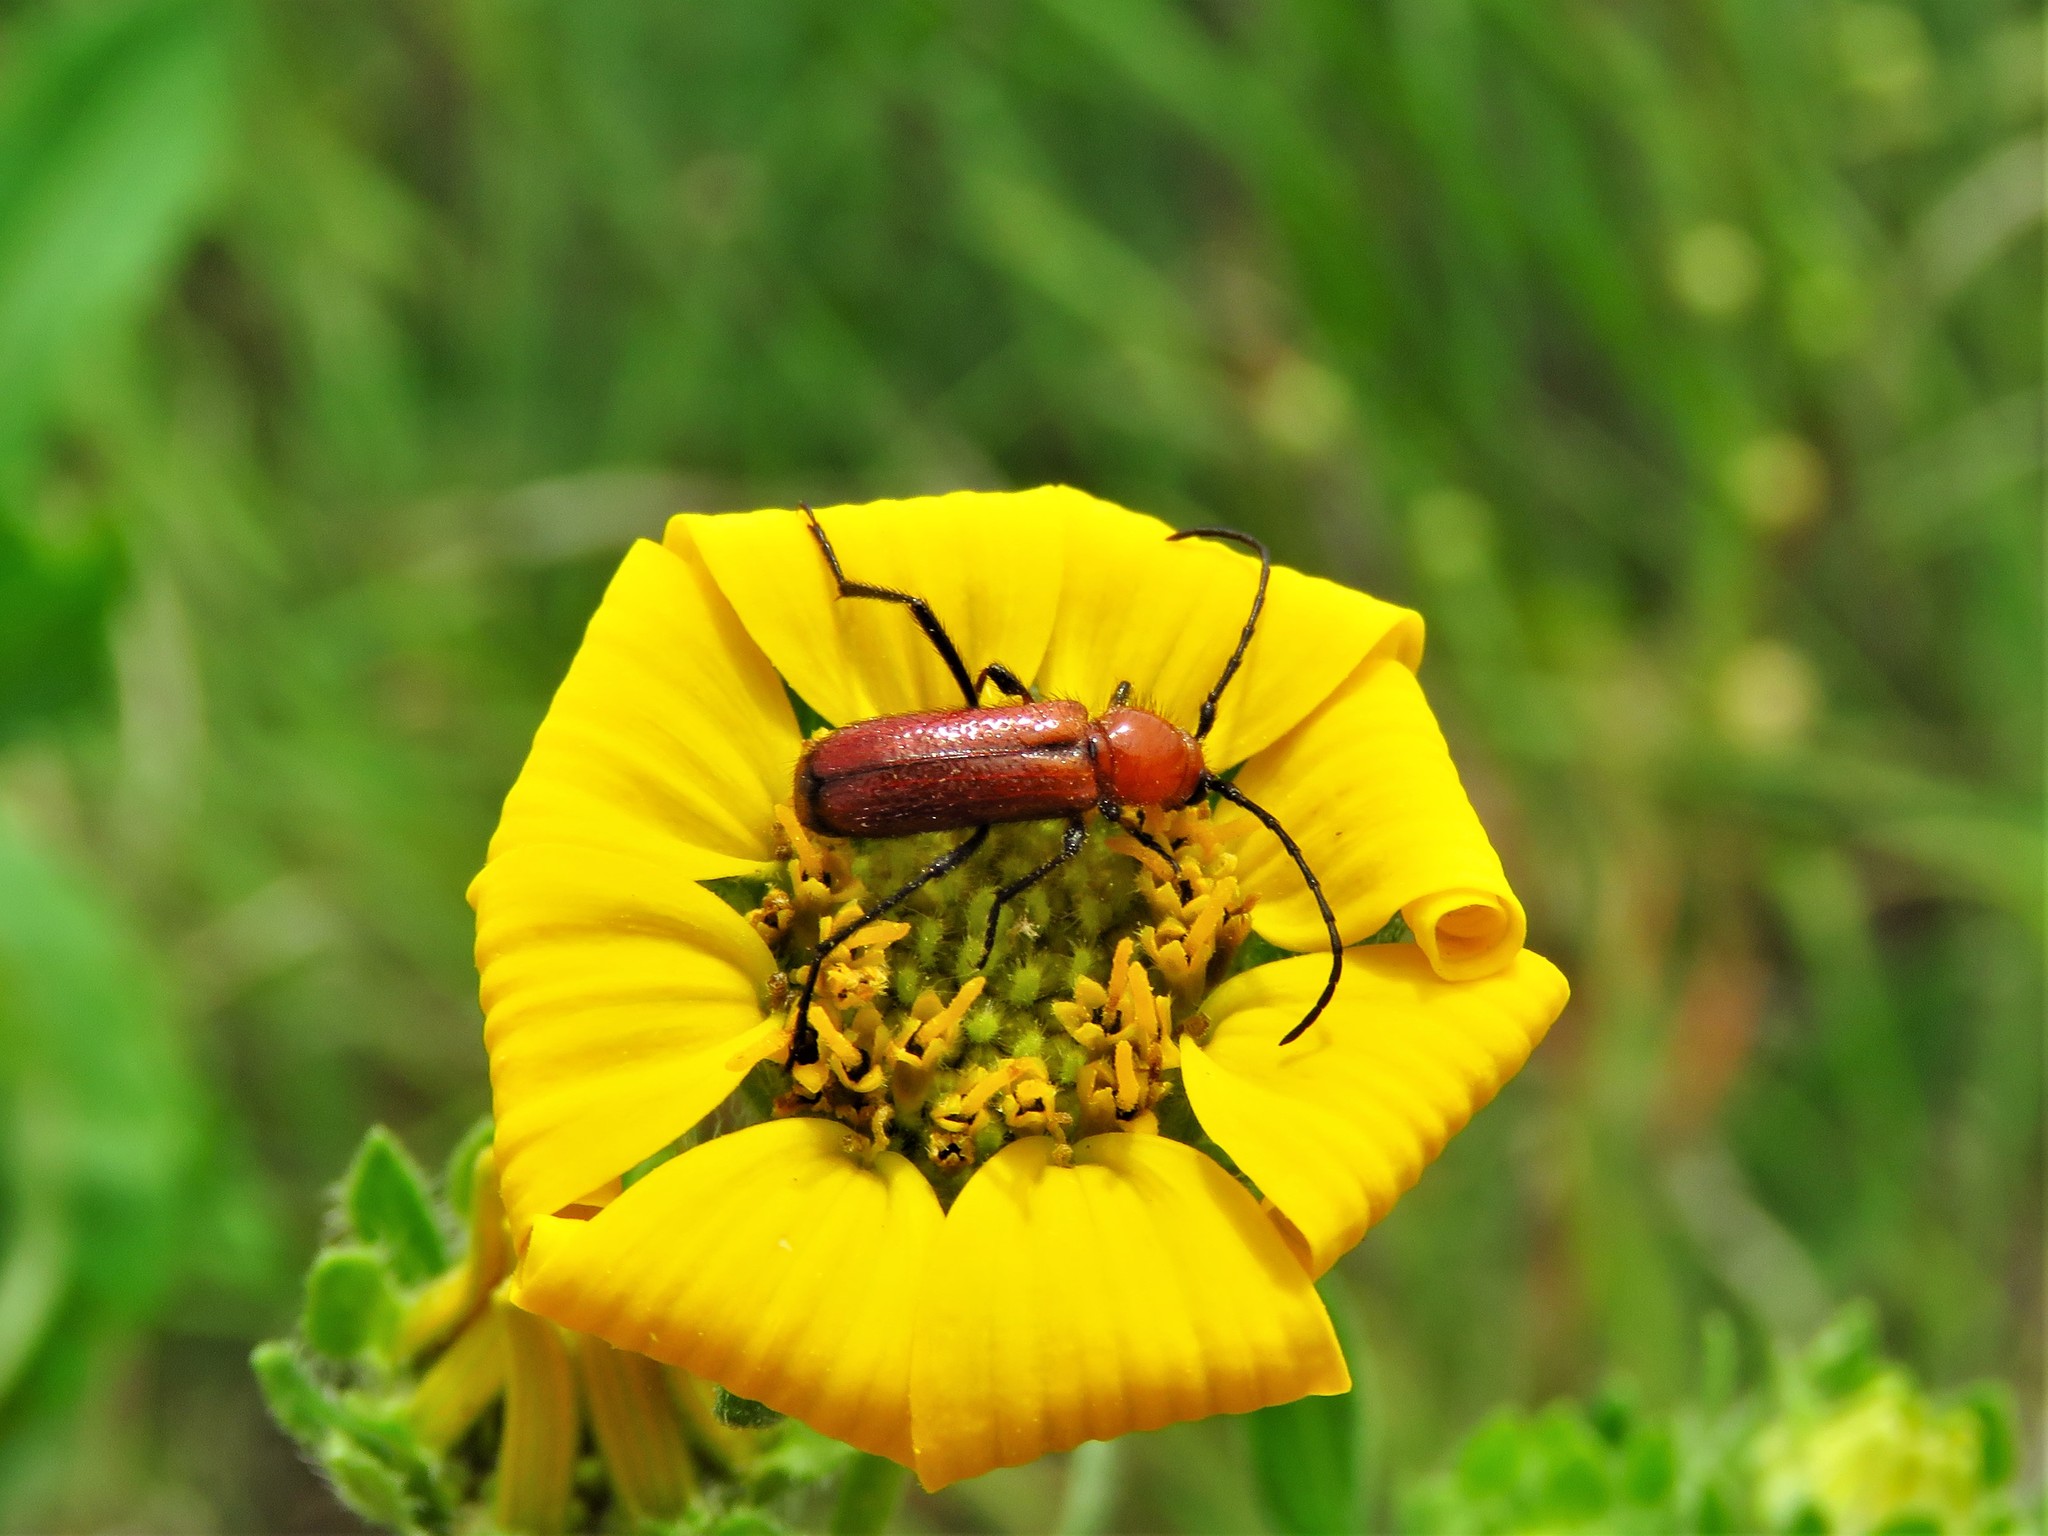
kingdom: Animalia
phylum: Arthropoda
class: Insecta
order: Coleoptera
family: Cerambycidae
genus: Batyle
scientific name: Batyle suturalis
